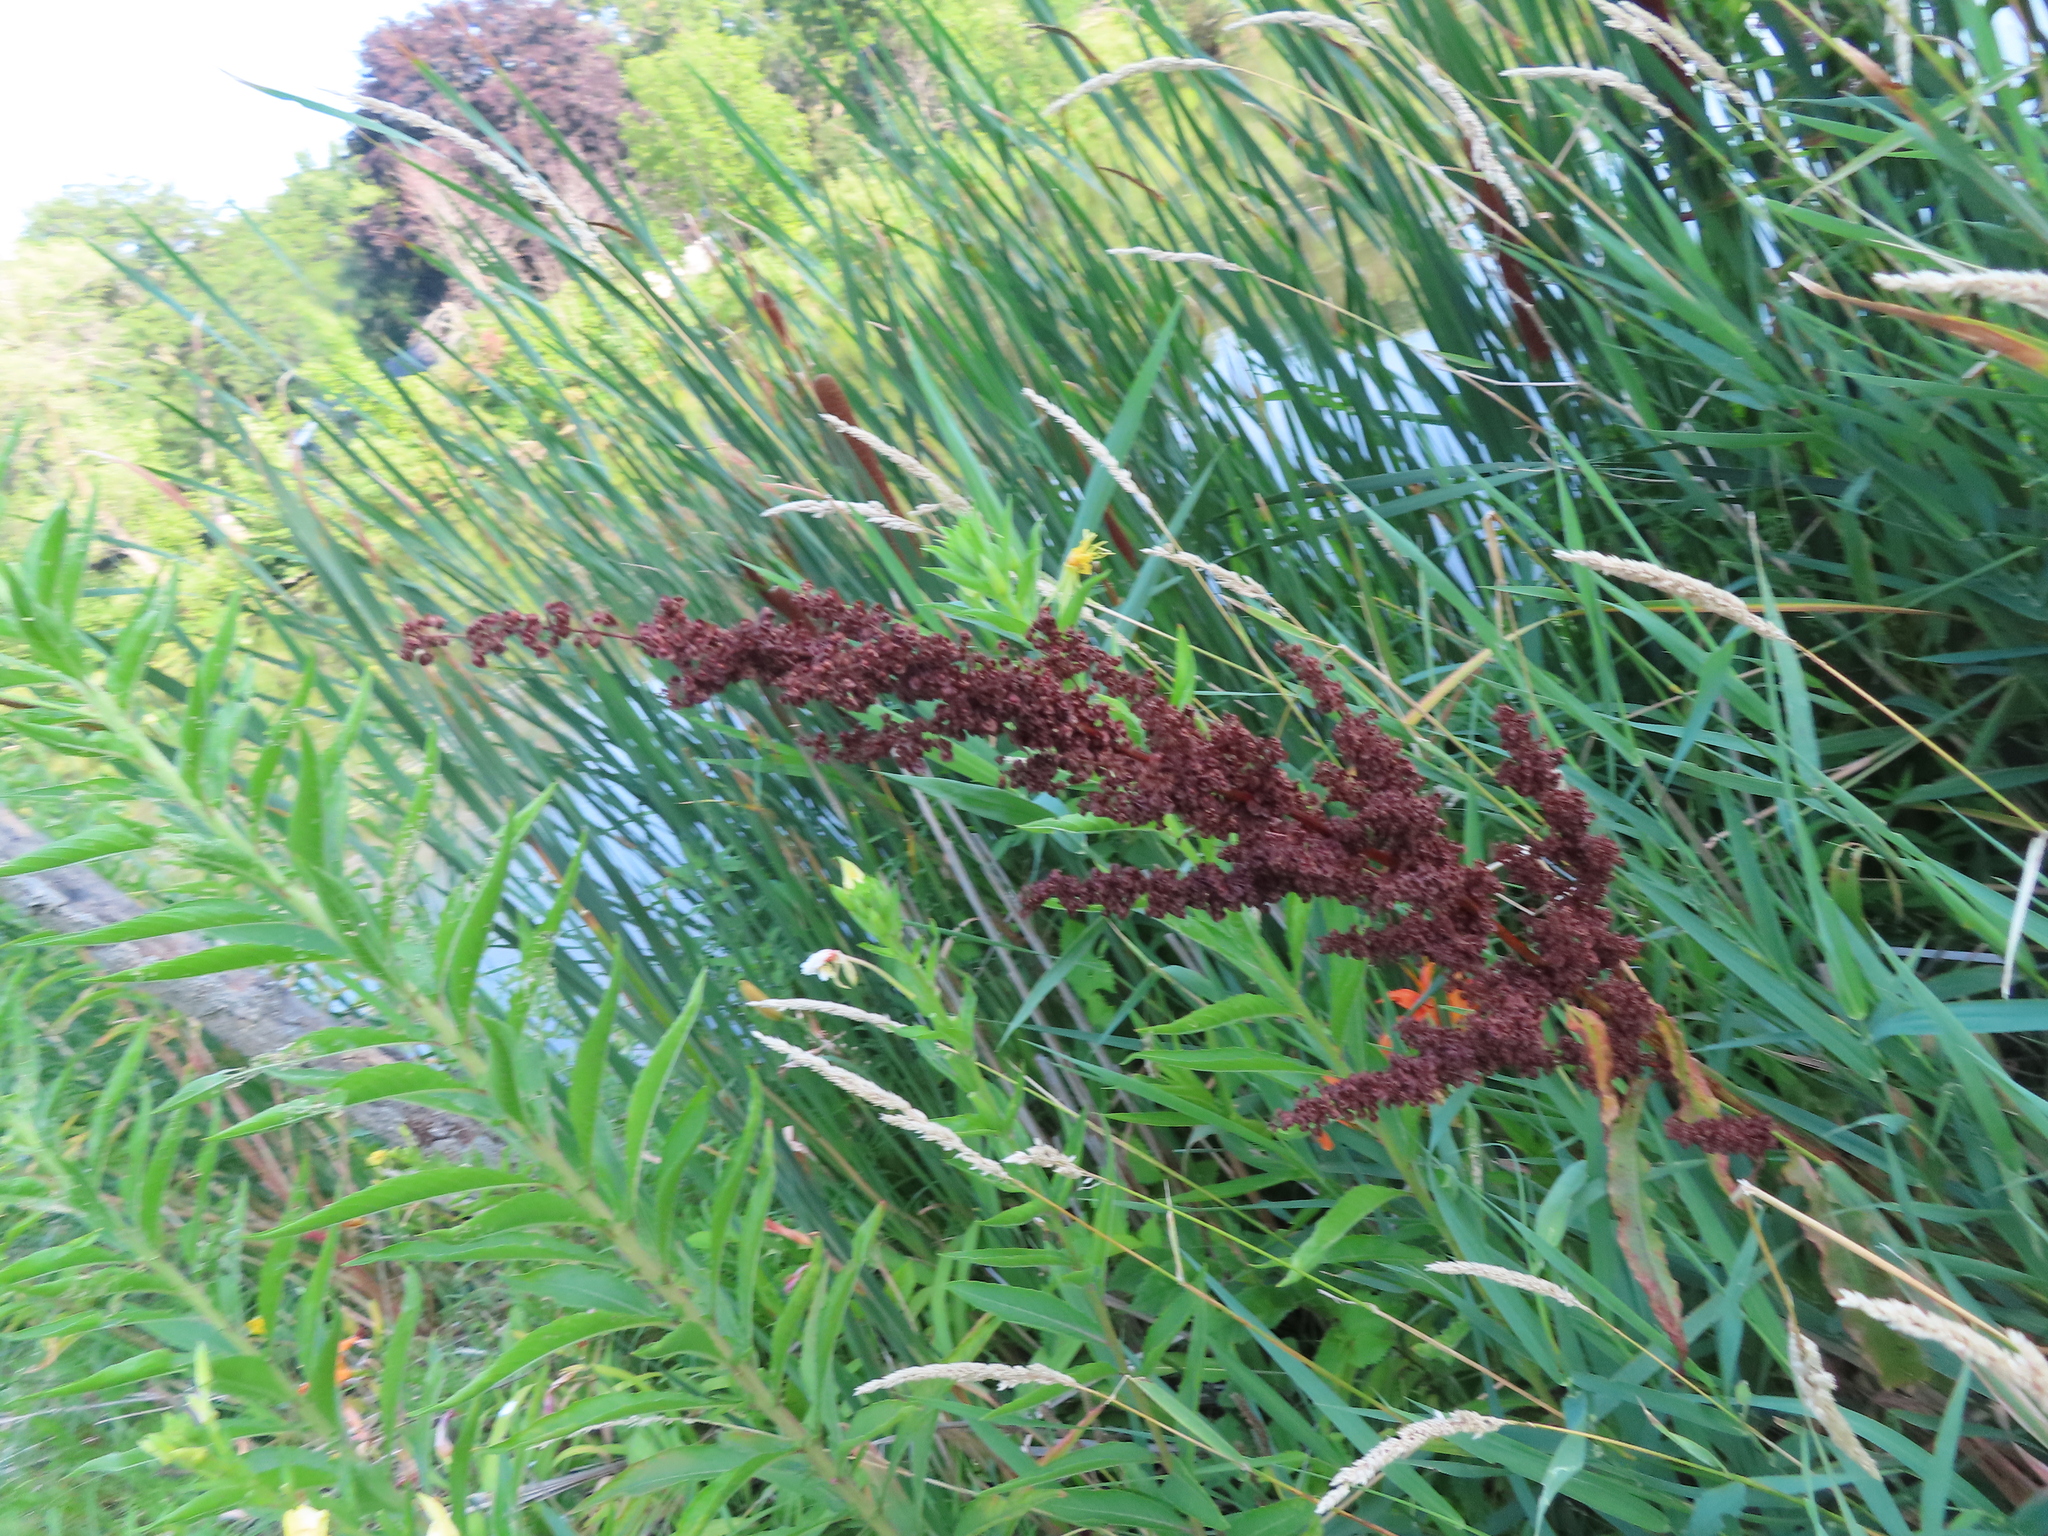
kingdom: Plantae
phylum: Tracheophyta
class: Magnoliopsida
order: Caryophyllales
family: Polygonaceae
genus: Rumex
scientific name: Rumex crispus
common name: Curled dock
